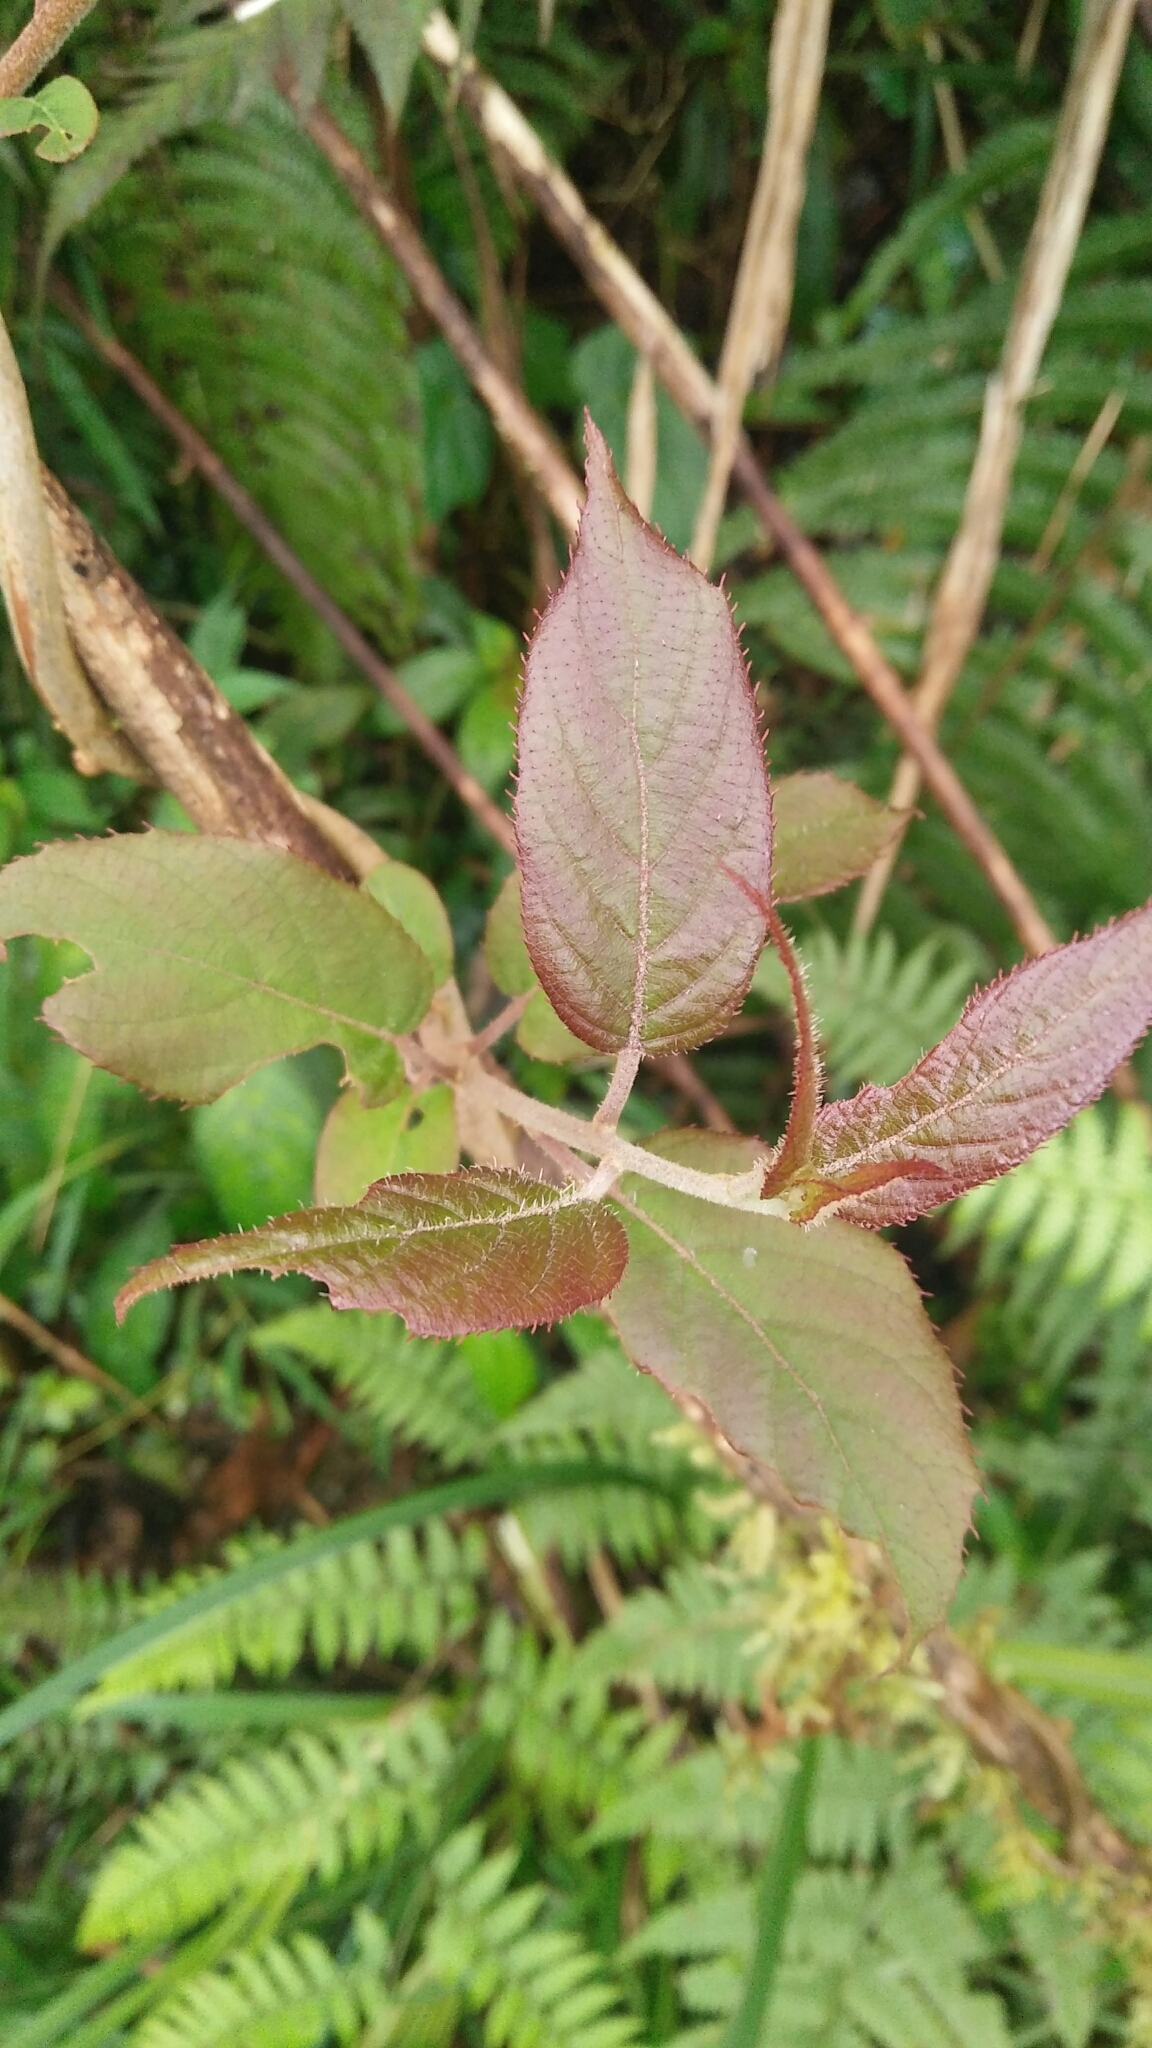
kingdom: Plantae
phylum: Tracheophyta
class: Magnoliopsida
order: Ericales
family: Actinidiaceae
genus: Actinidia
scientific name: Actinidia rufa
